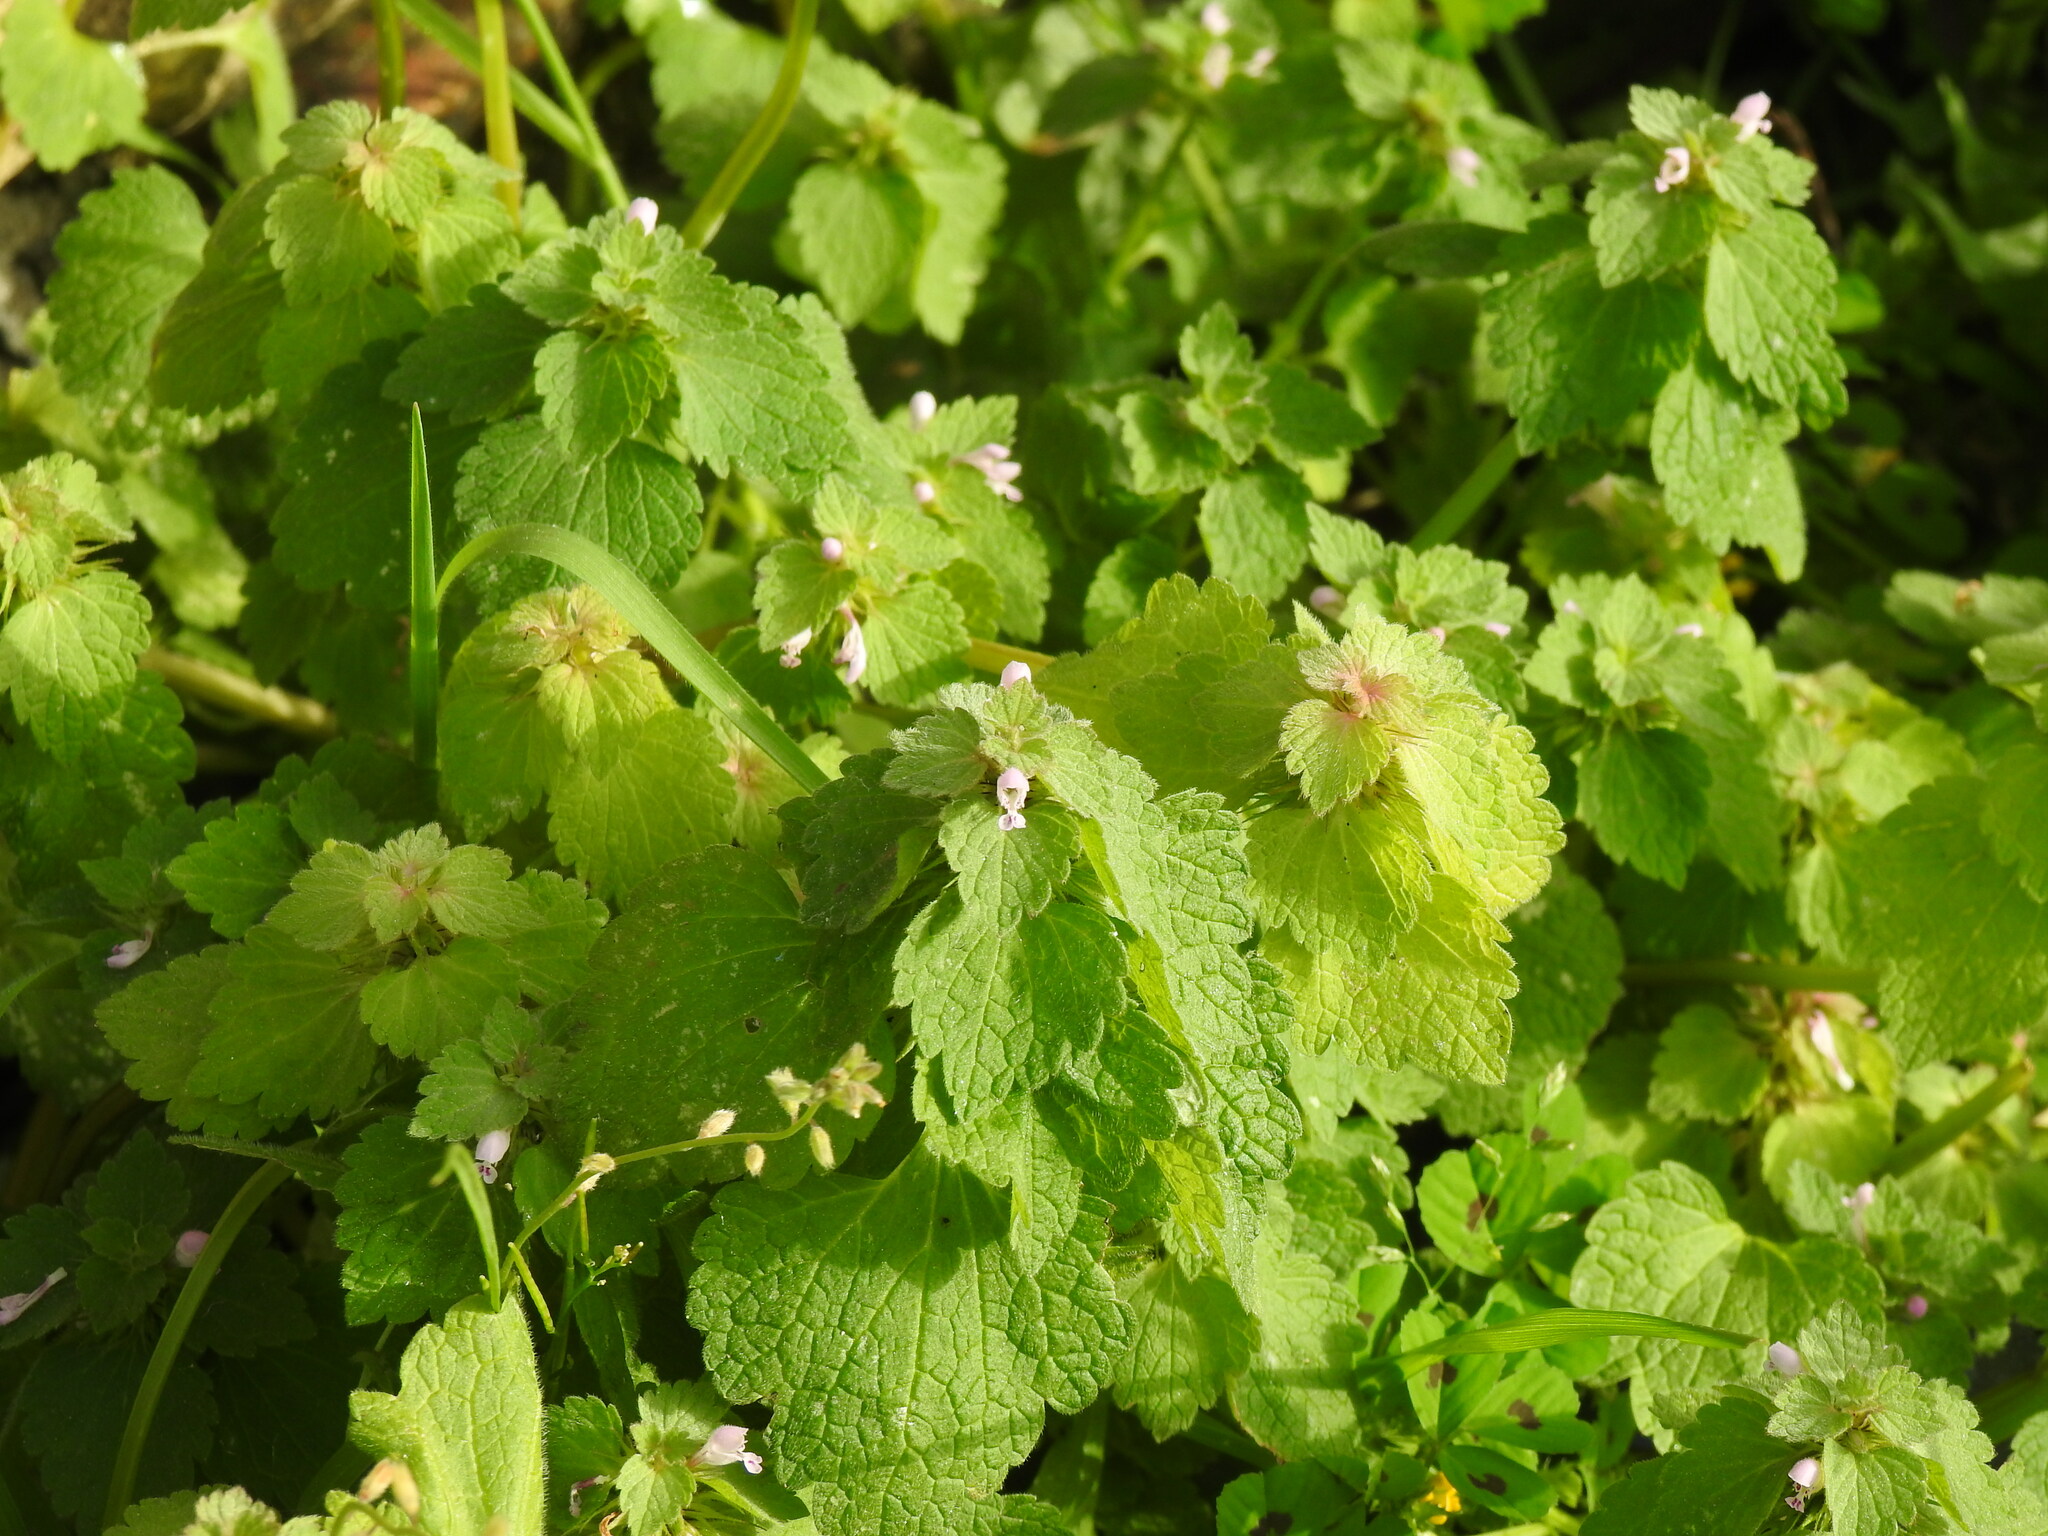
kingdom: Plantae
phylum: Tracheophyta
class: Magnoliopsida
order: Lamiales
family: Lamiaceae
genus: Lamium
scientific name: Lamium purpureum
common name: Red dead-nettle
